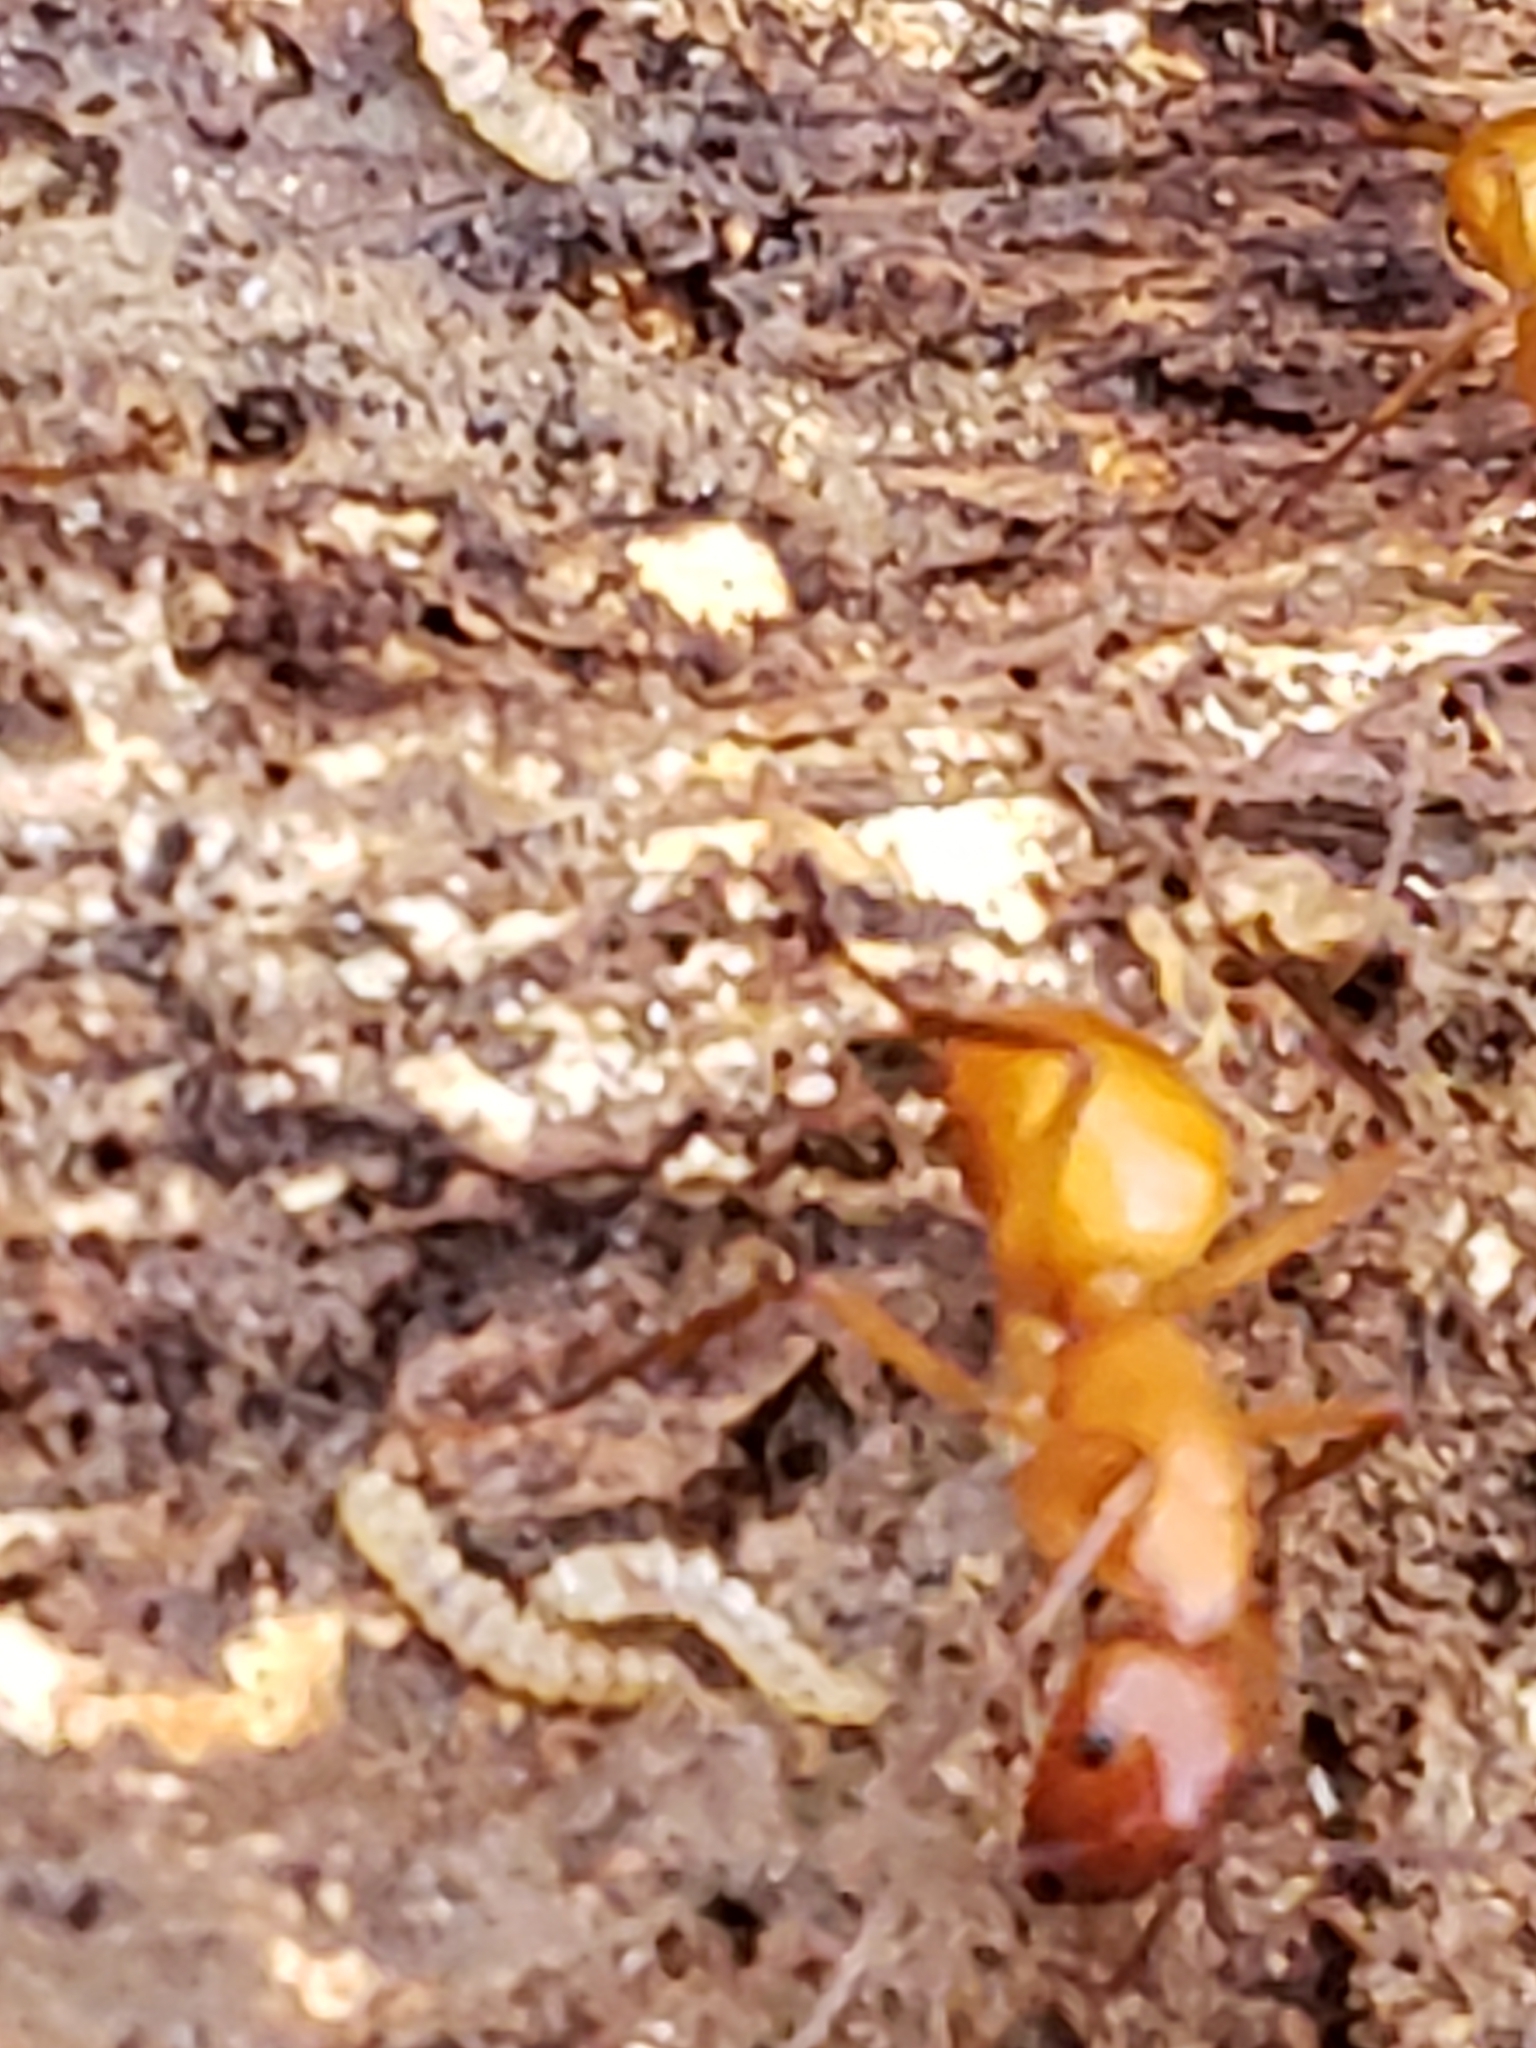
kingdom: Animalia
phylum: Arthropoda
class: Insecta
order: Hymenoptera
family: Formicidae
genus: Camponotus
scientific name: Camponotus castaneus
